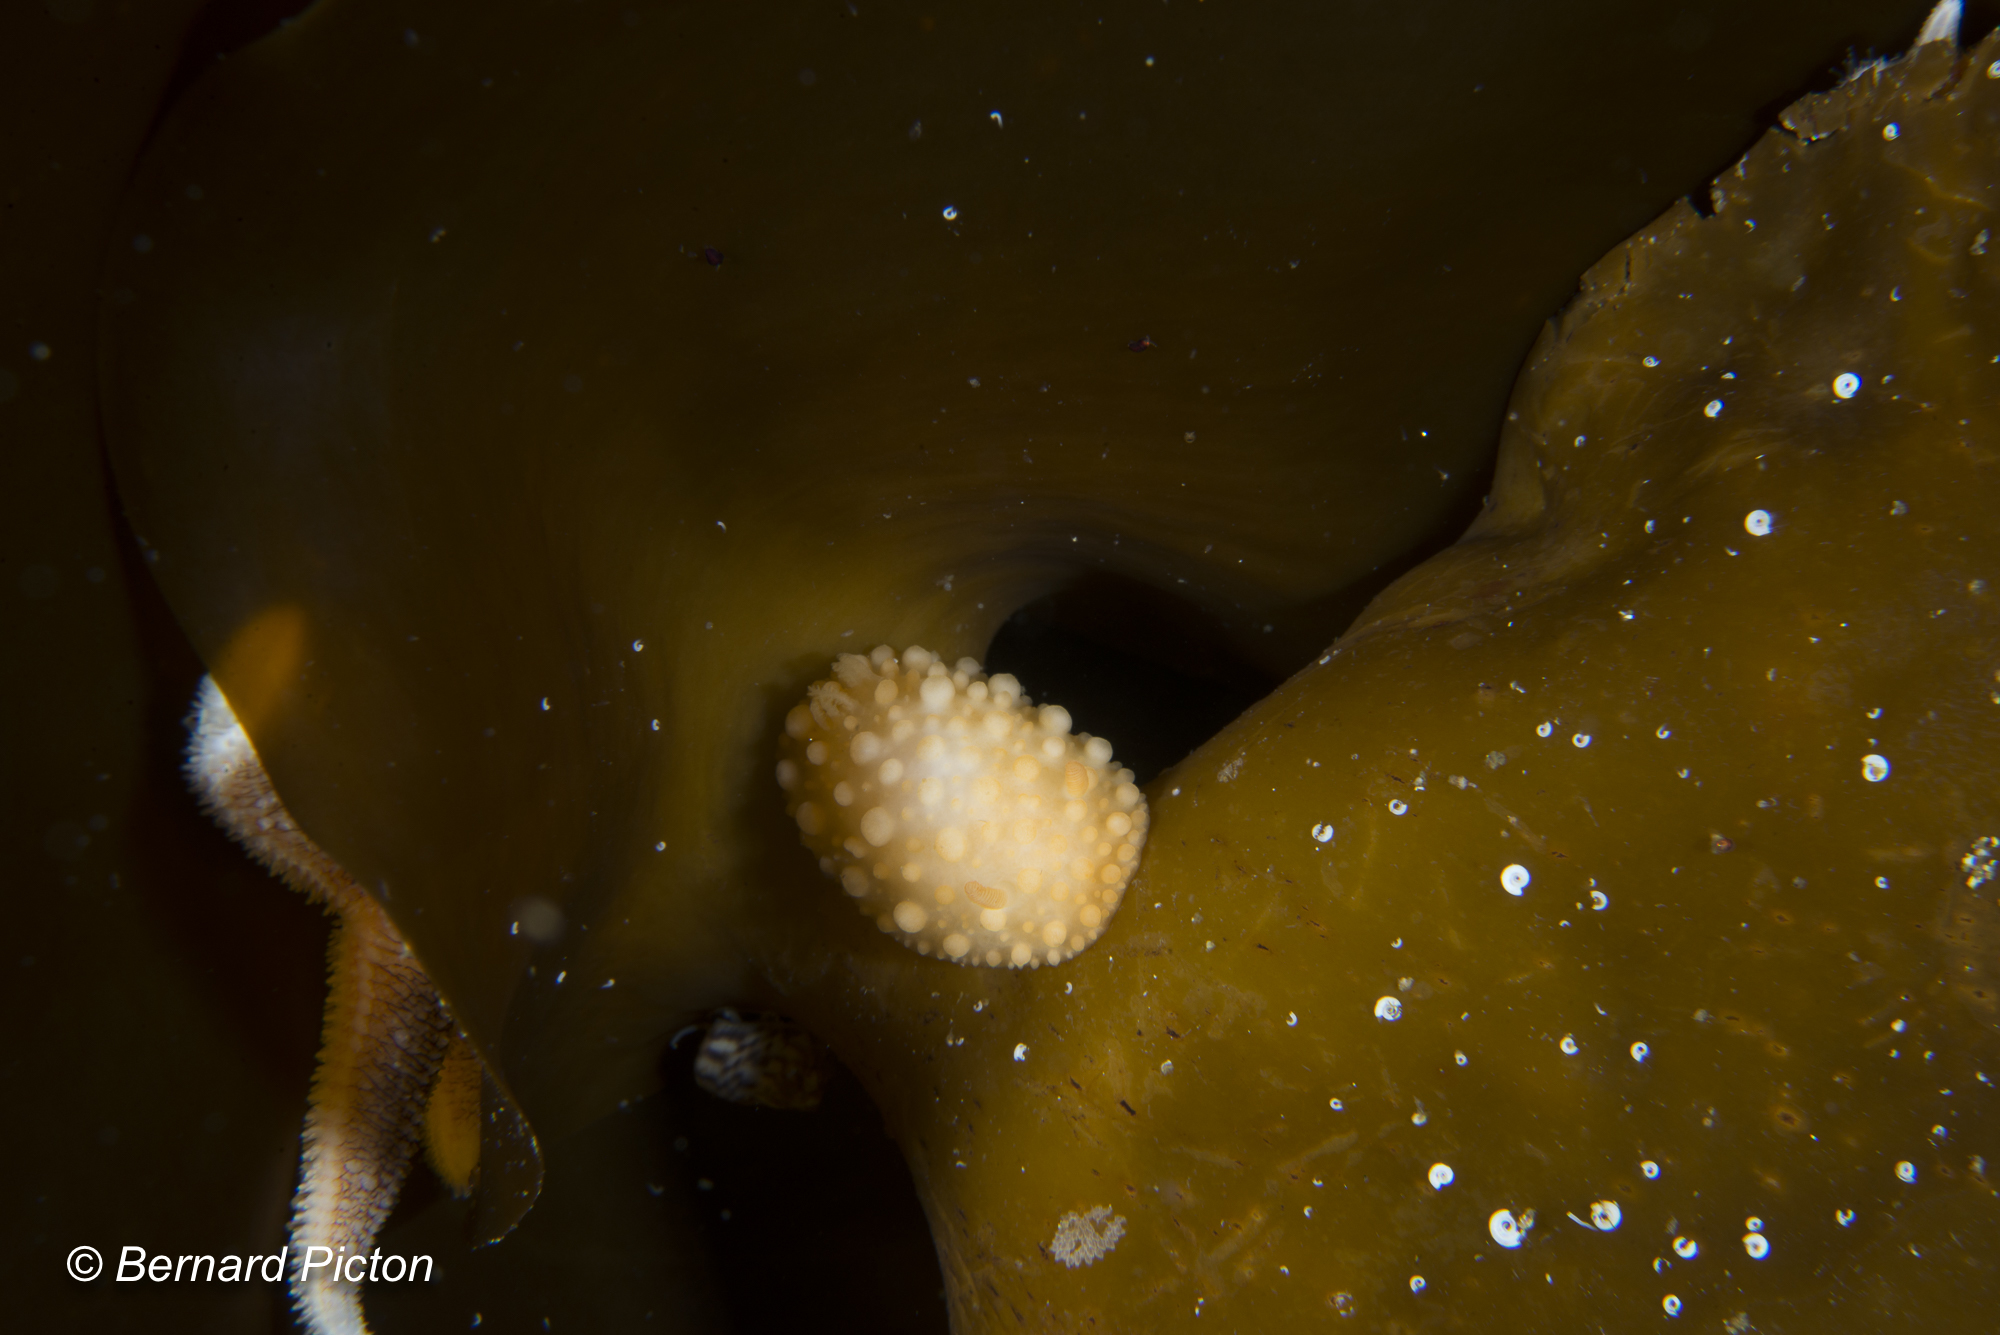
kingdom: Animalia
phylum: Mollusca
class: Gastropoda
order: Nudibranchia
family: Onchidorididae
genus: Adalaria
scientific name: Adalaria loveni
